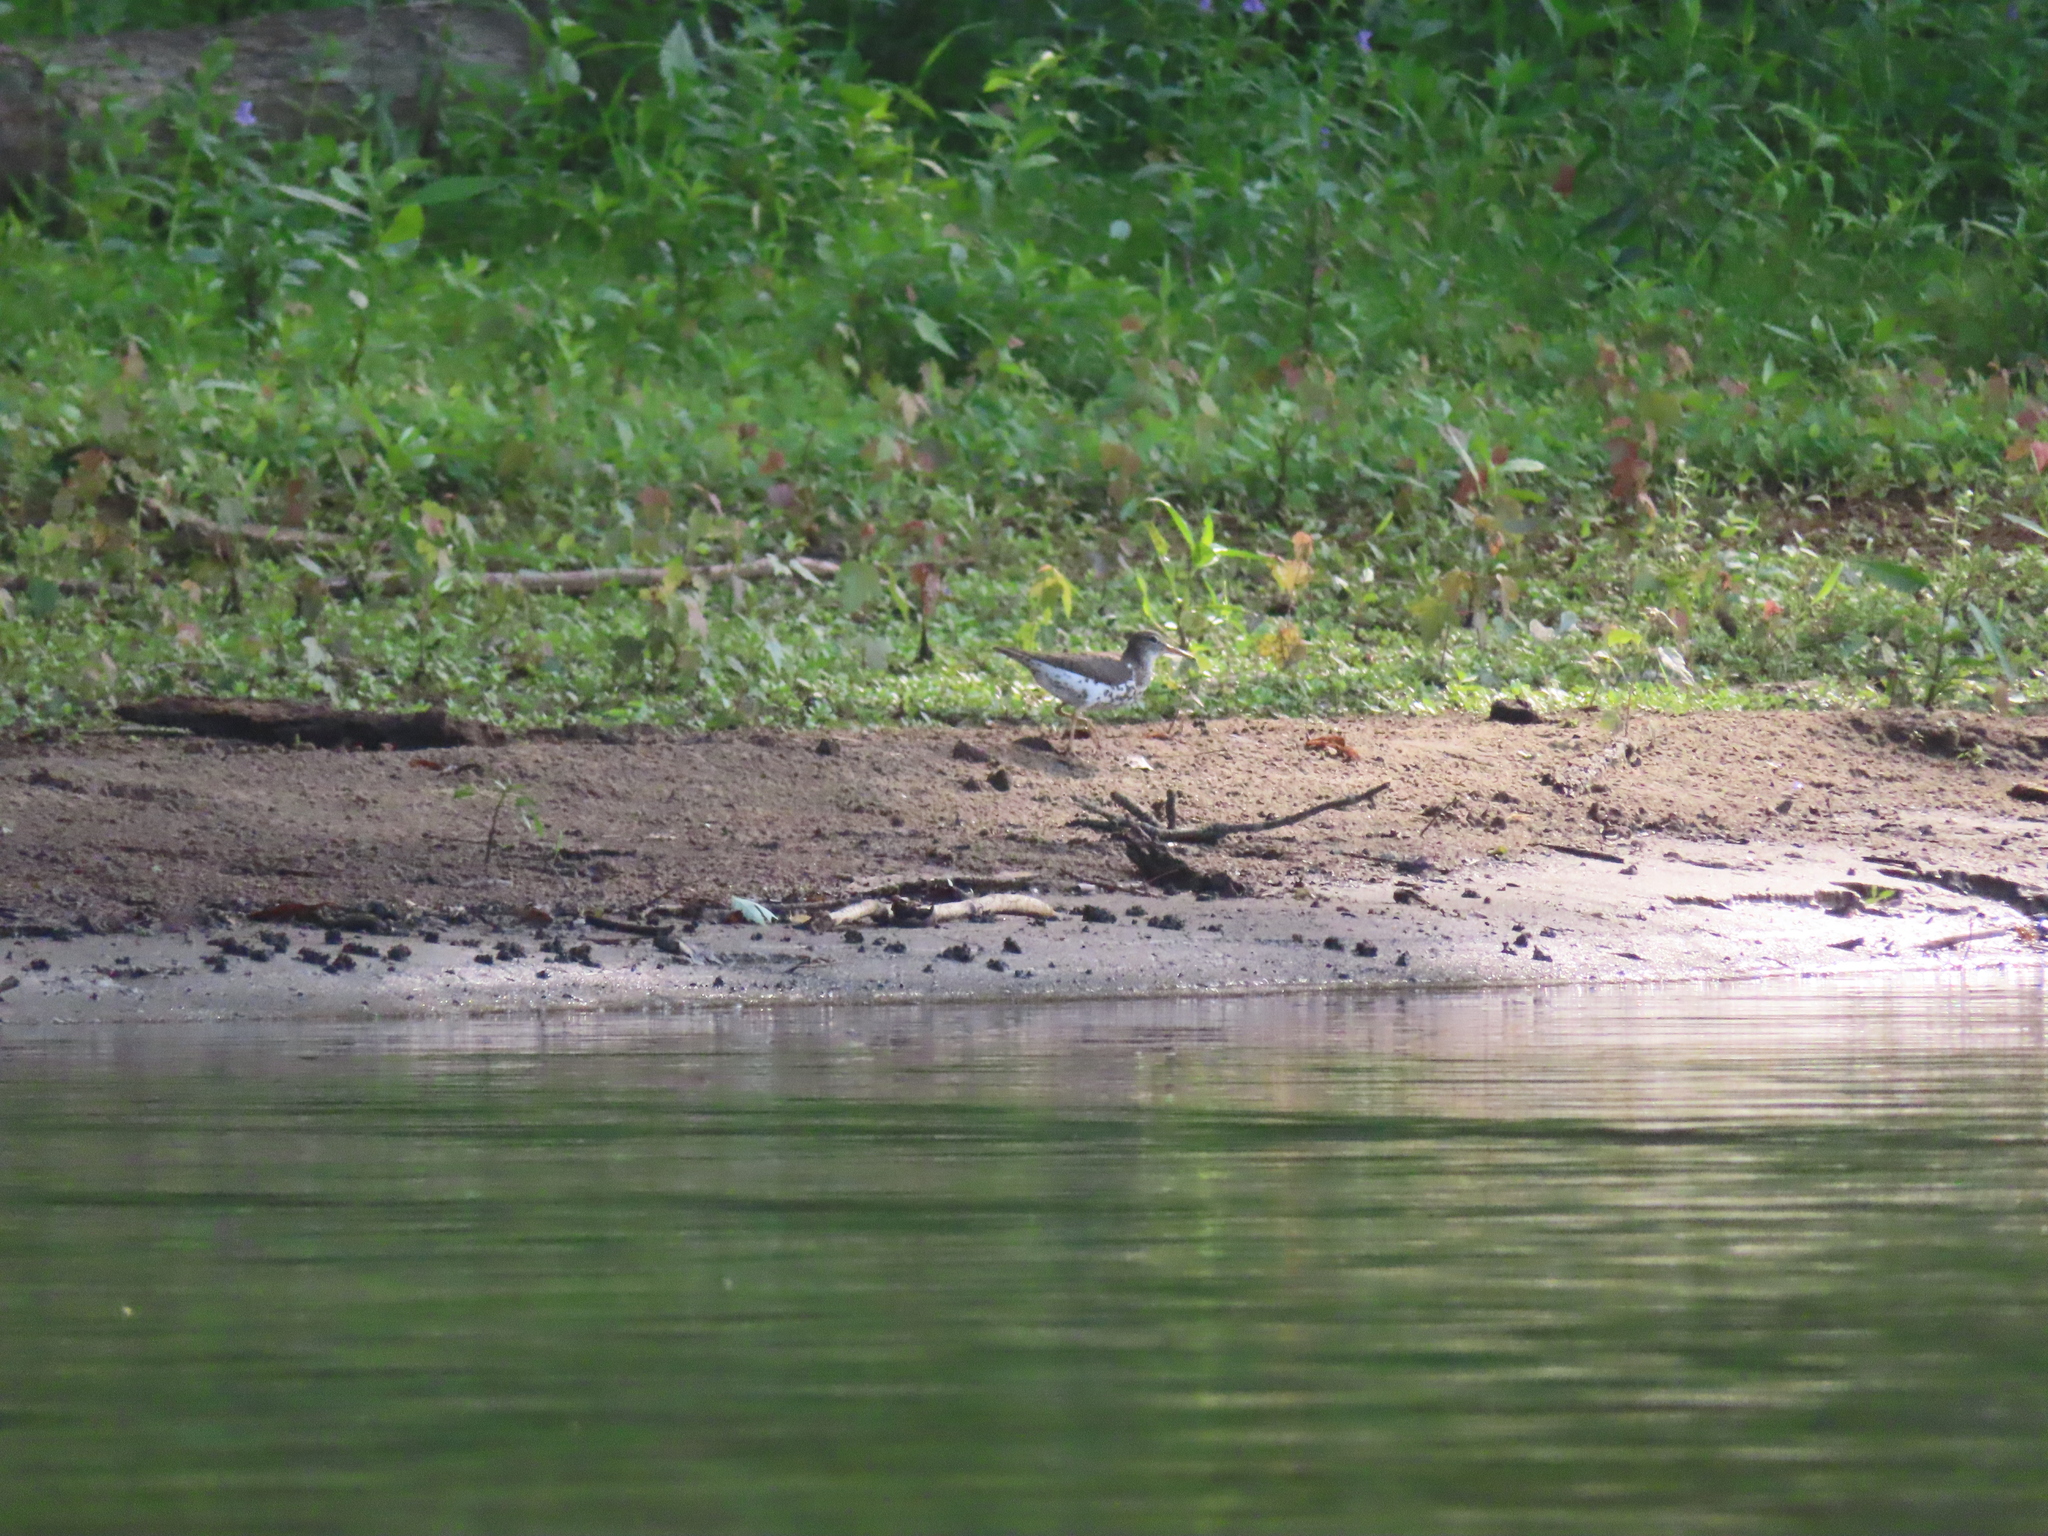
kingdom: Animalia
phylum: Chordata
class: Aves
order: Charadriiformes
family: Scolopacidae
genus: Actitis
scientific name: Actitis macularius
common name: Spotted sandpiper
